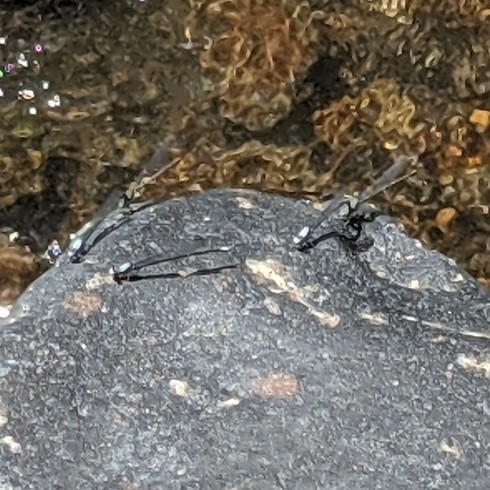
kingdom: Animalia
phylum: Arthropoda
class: Insecta
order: Odonata
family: Coenagrionidae
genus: Argia
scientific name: Argia moesta
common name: Powdered dancer
